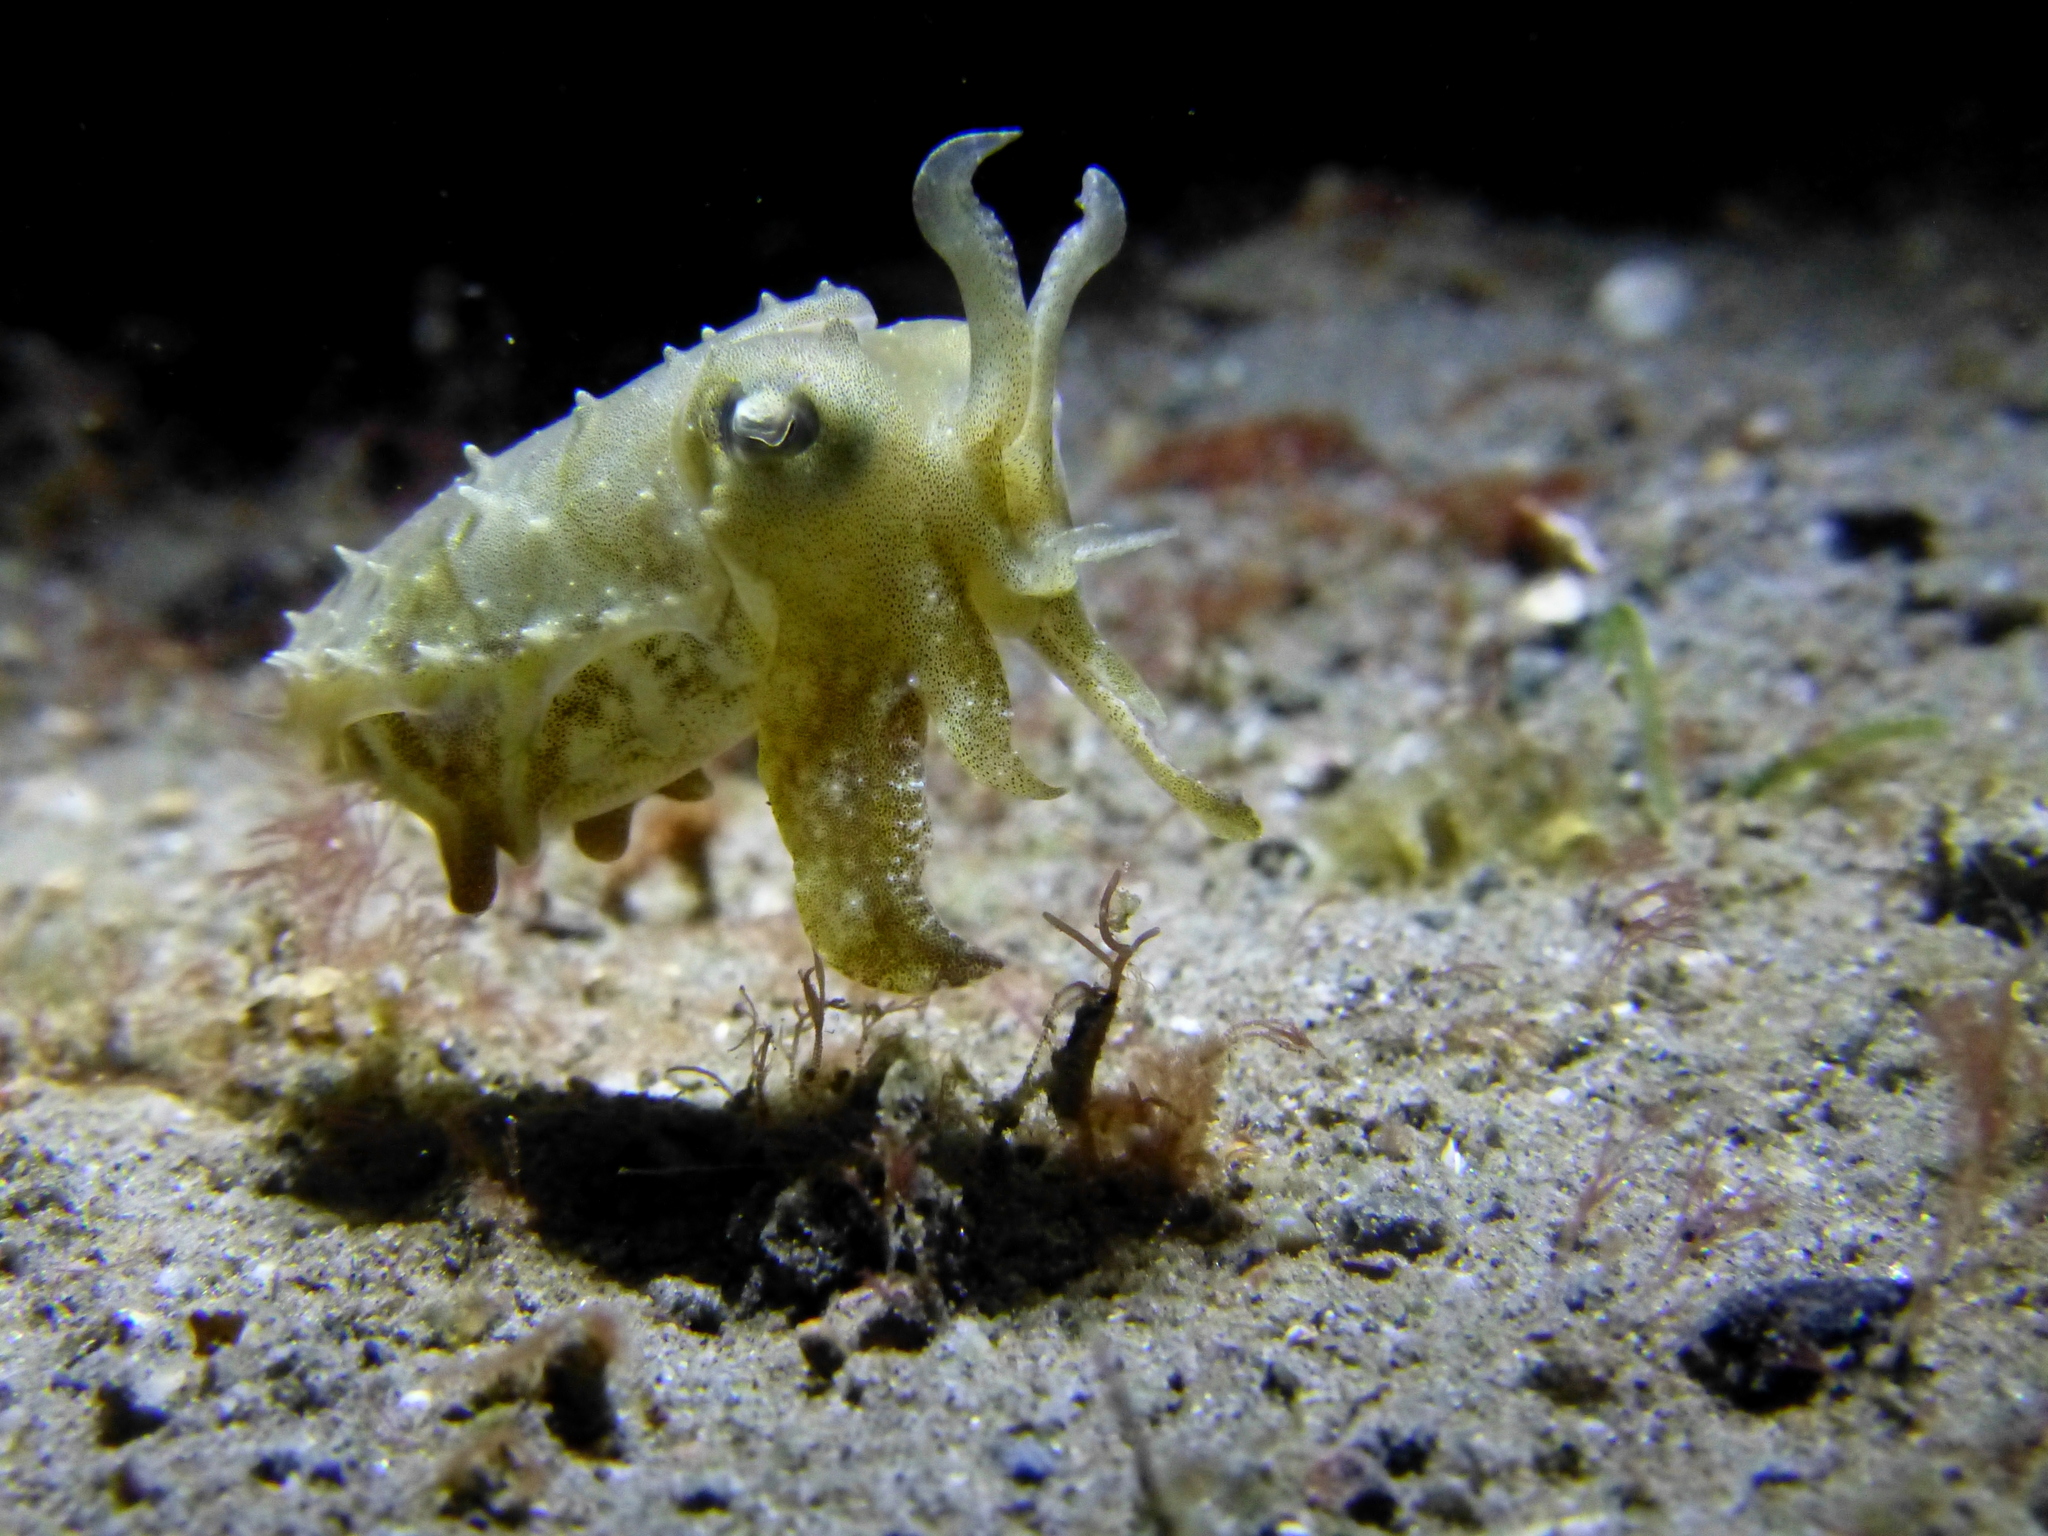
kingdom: Animalia
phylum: Mollusca
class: Cephalopoda
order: Sepiida
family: Sepiidae
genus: Ascarosepion
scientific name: Ascarosepion latimanus
